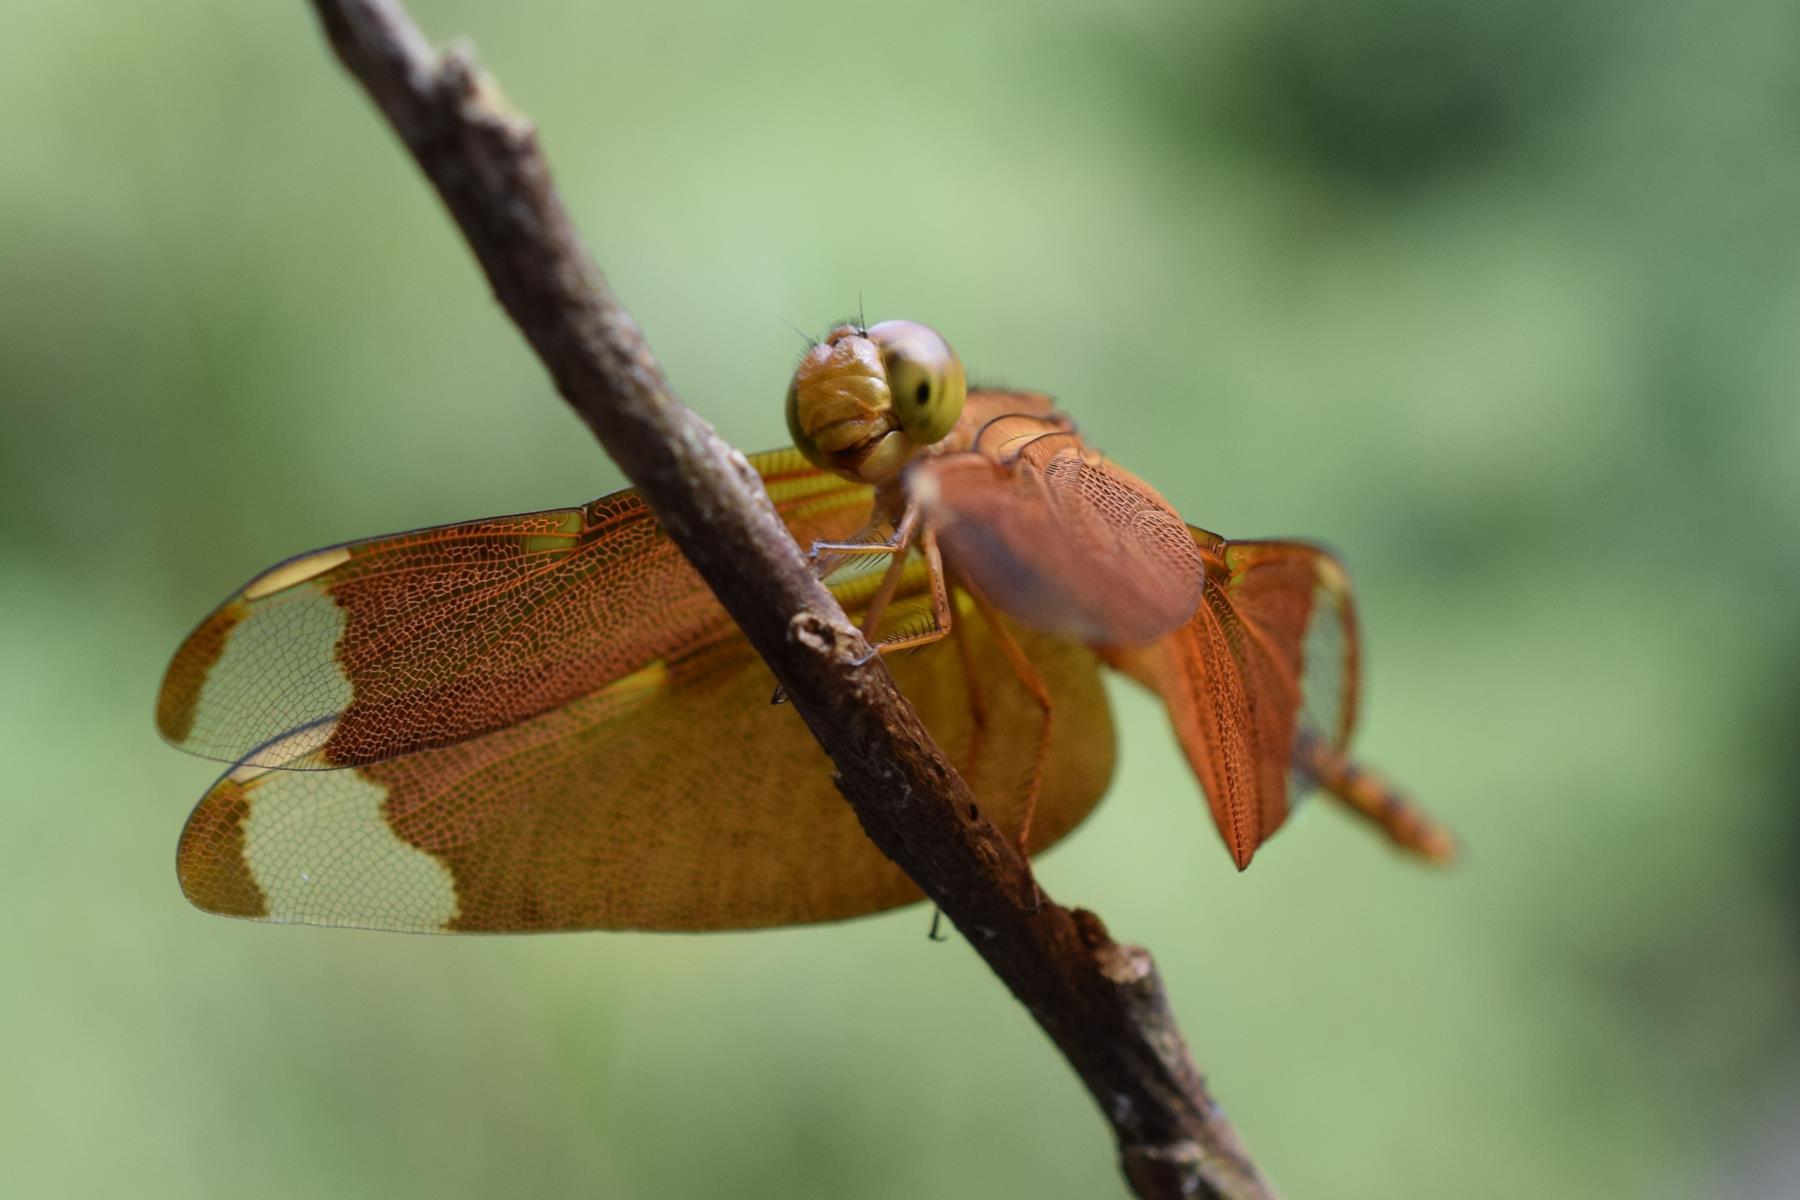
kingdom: Animalia
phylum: Arthropoda
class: Insecta
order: Odonata
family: Libellulidae
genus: Neurothemis
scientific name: Neurothemis fulvia
